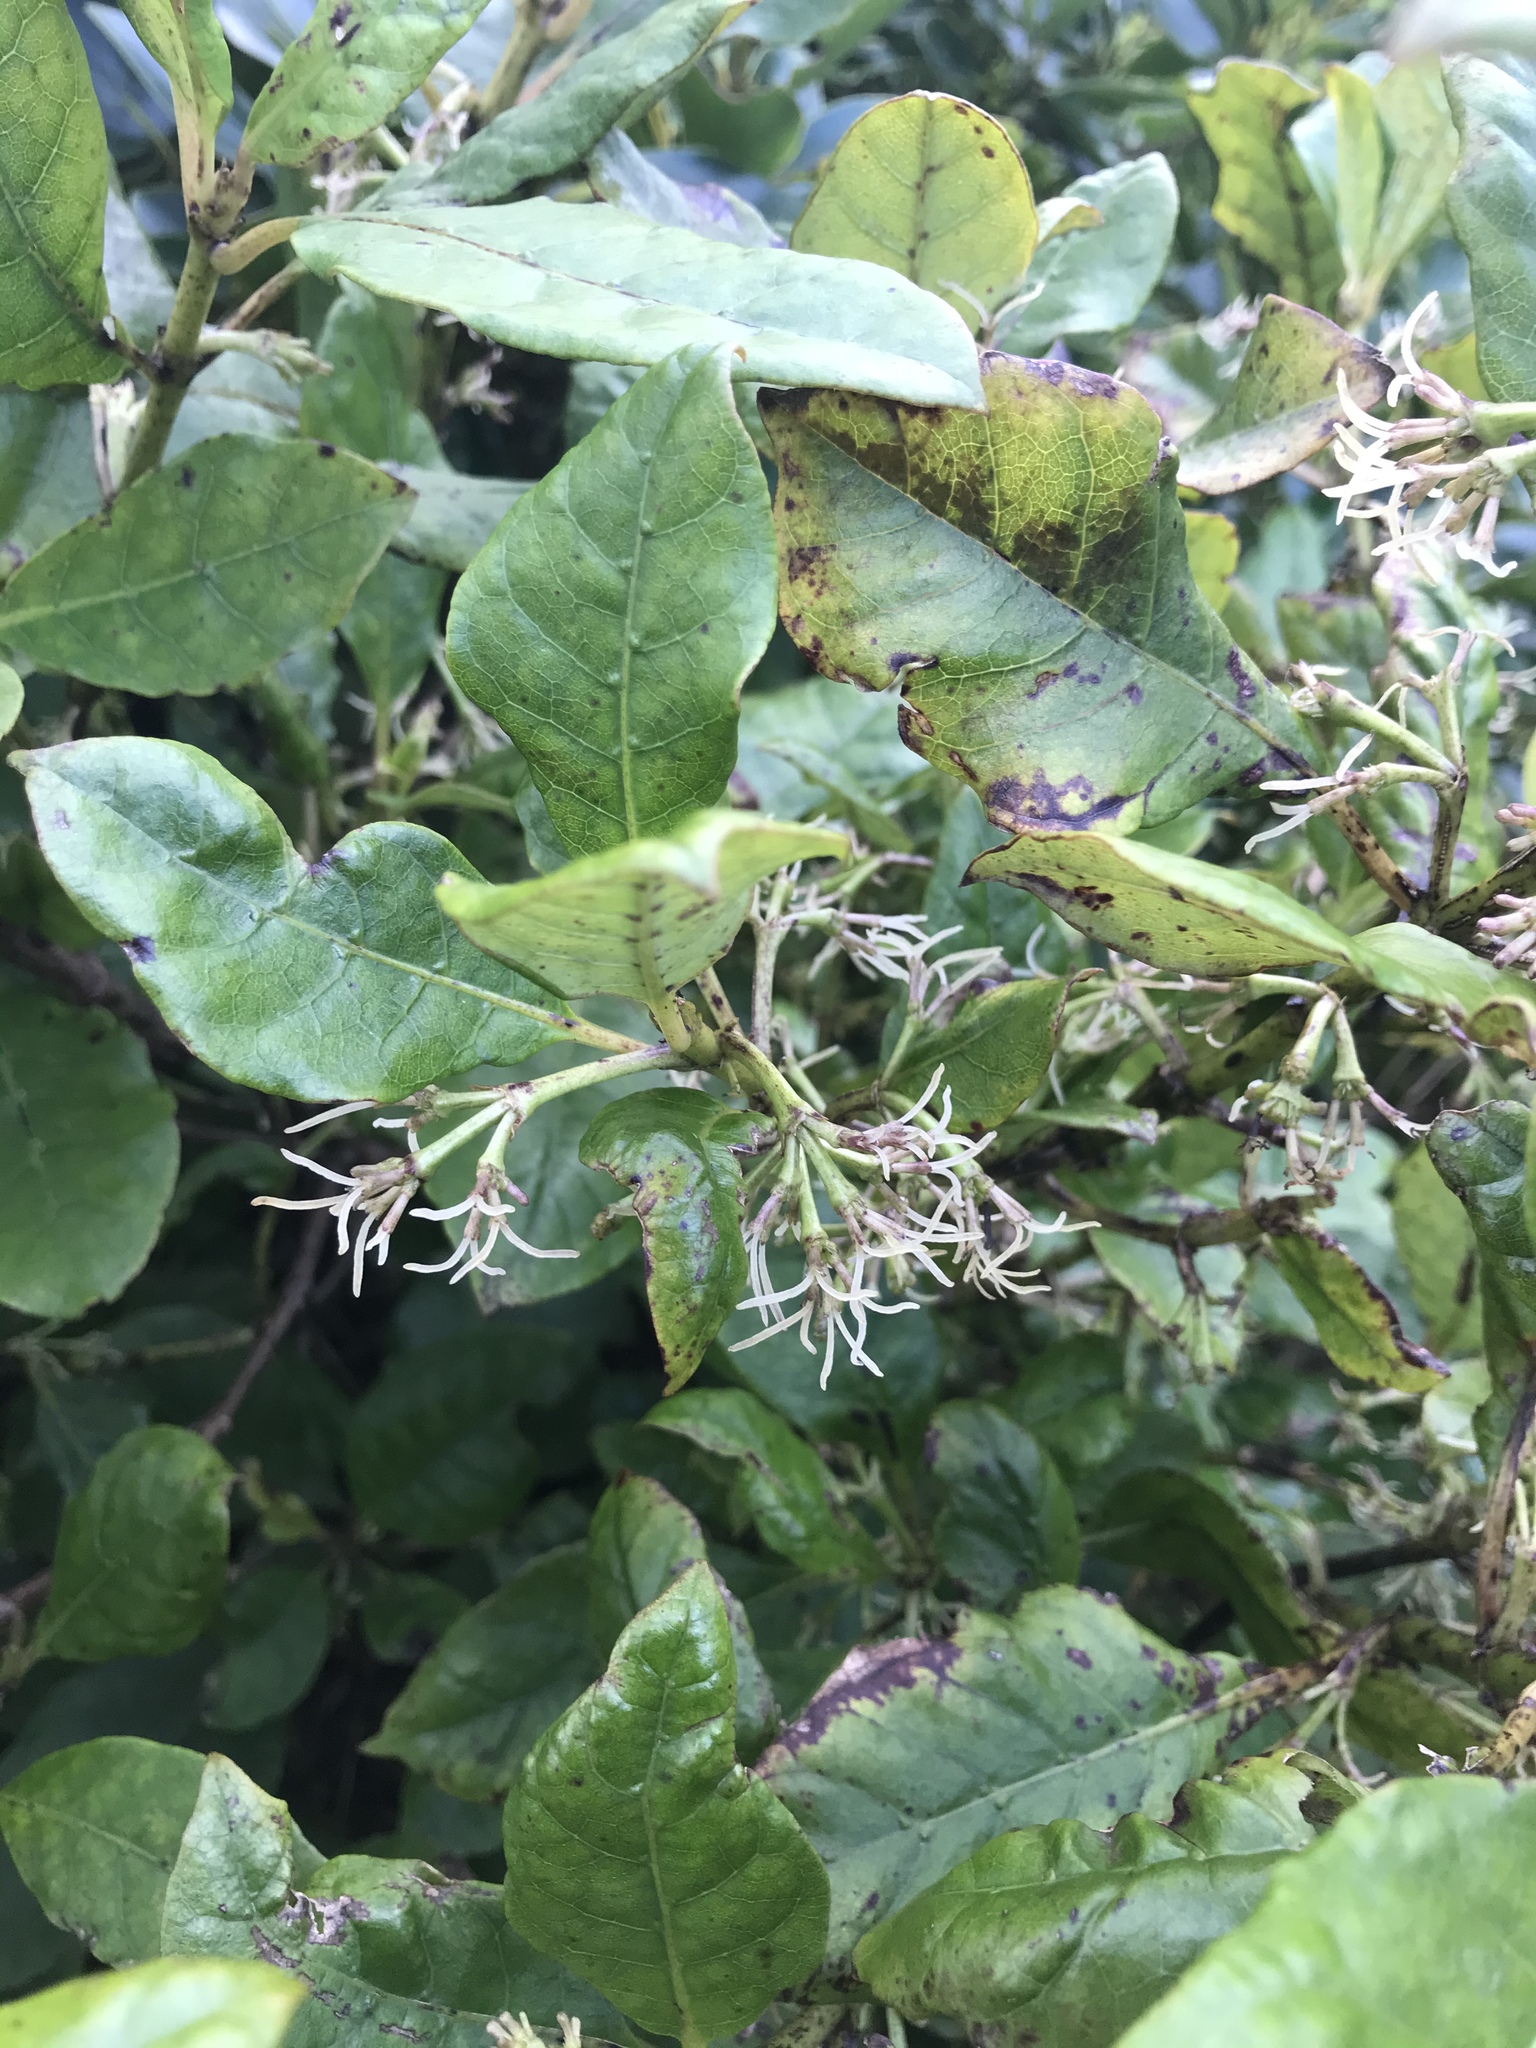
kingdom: Plantae
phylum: Tracheophyta
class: Magnoliopsida
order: Gentianales
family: Rubiaceae
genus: Coprosma
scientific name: Coprosma autumnalis
